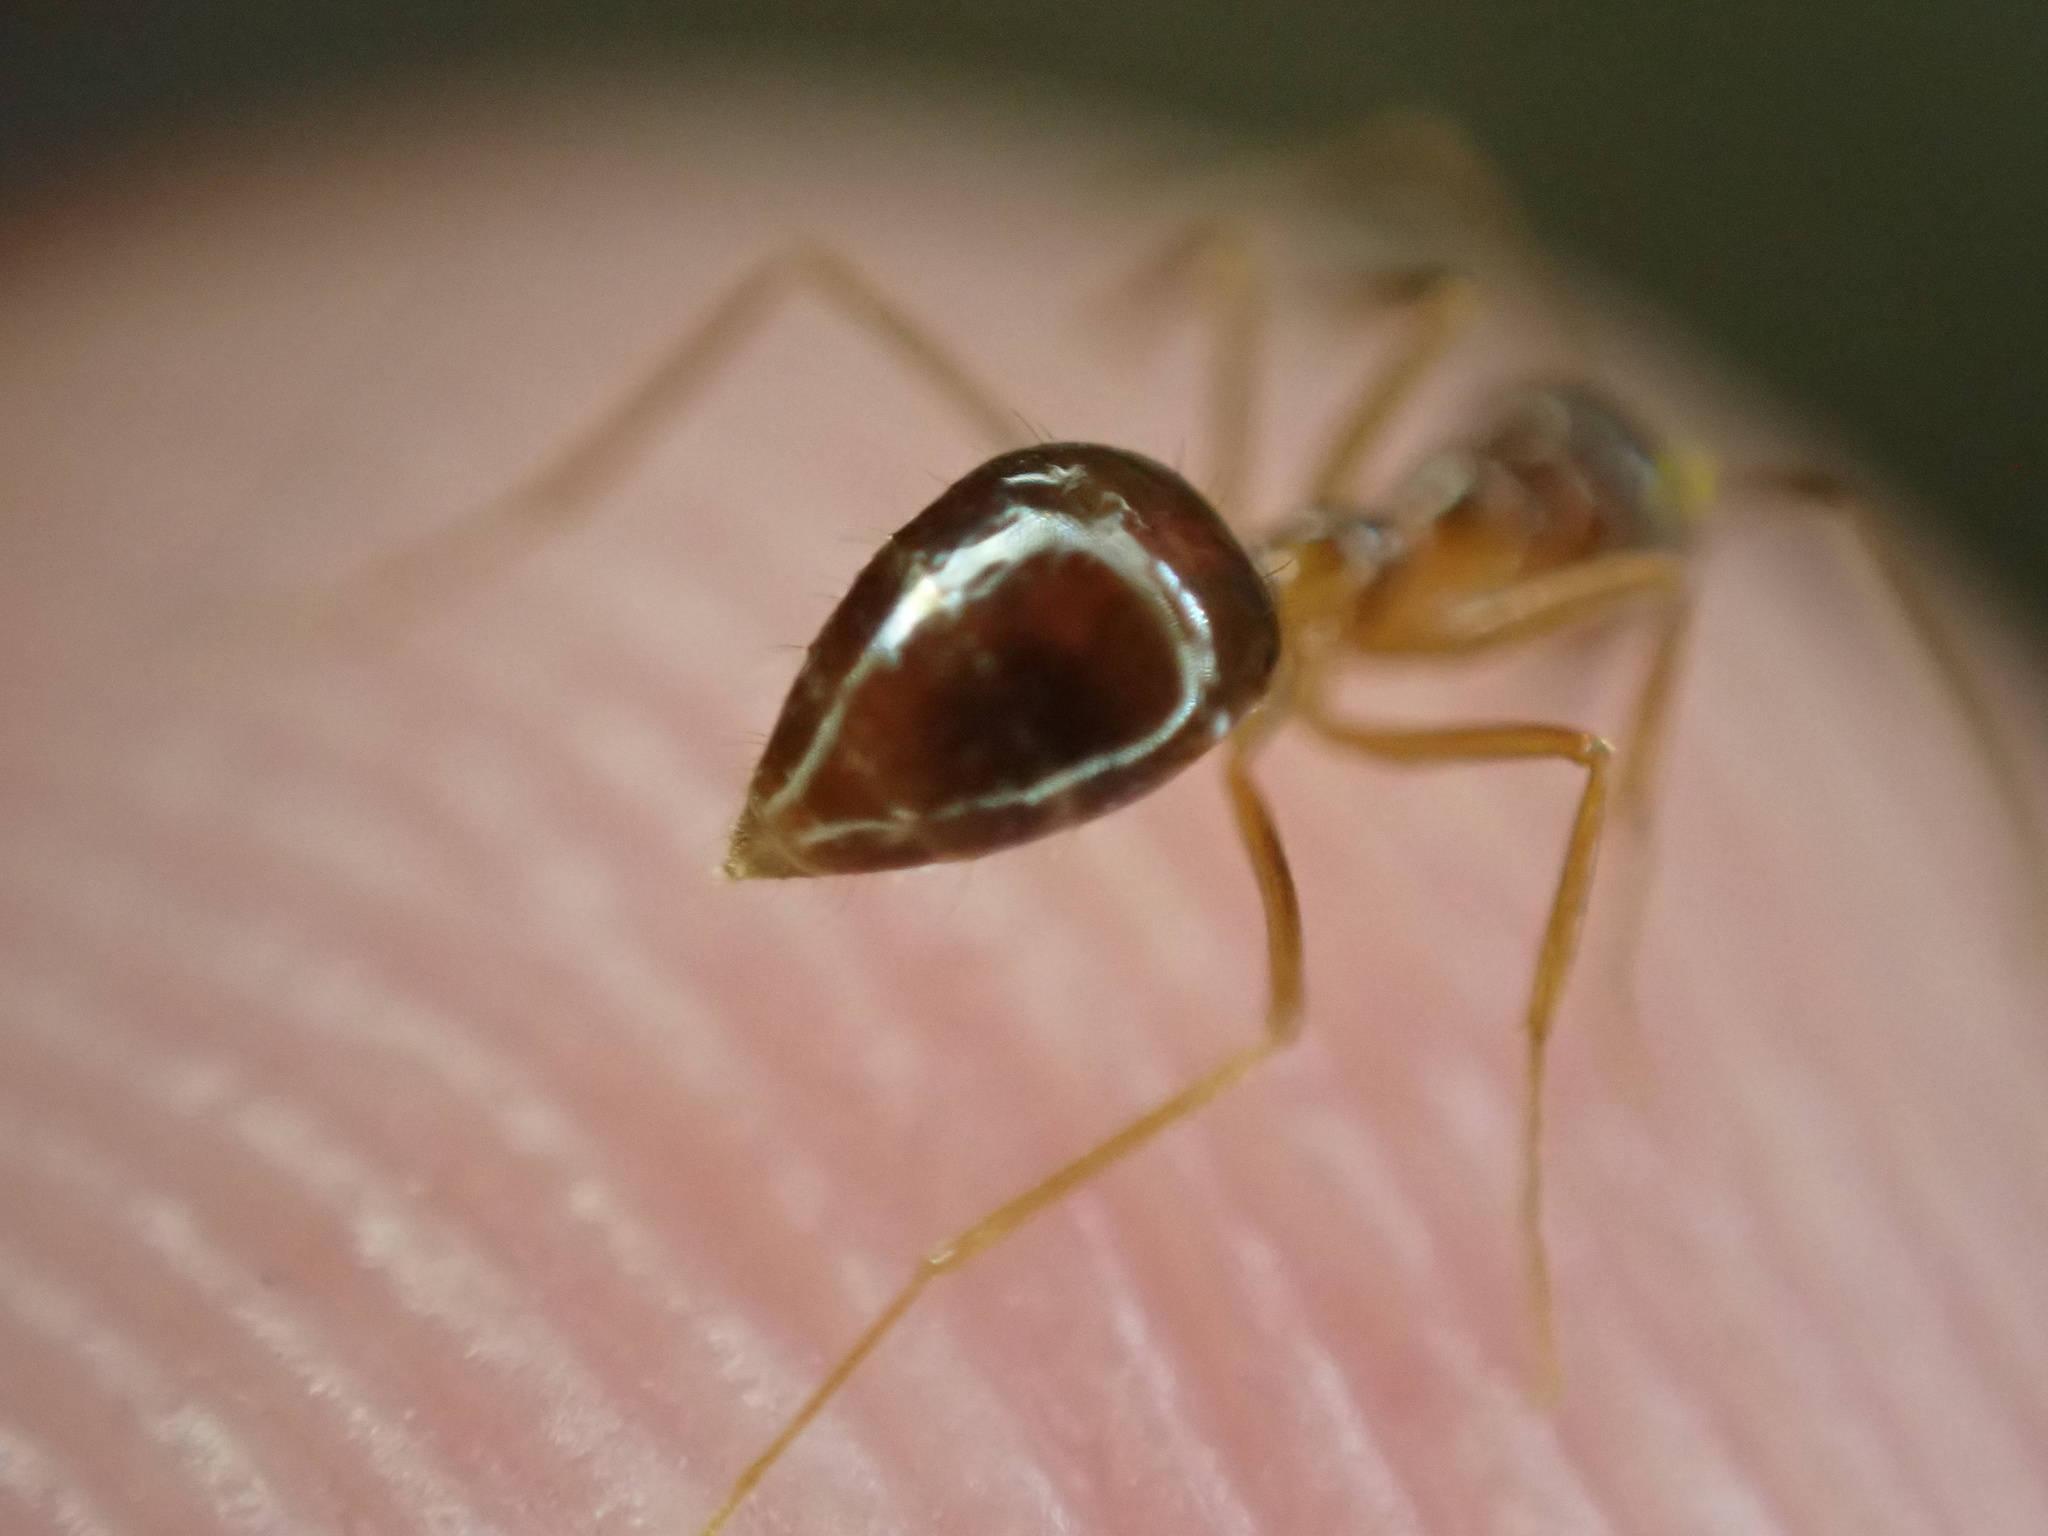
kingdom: Animalia
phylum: Arthropoda
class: Insecta
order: Hymenoptera
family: Formicidae
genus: Prenolepis
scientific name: Prenolepis imparis
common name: Small honey ant
